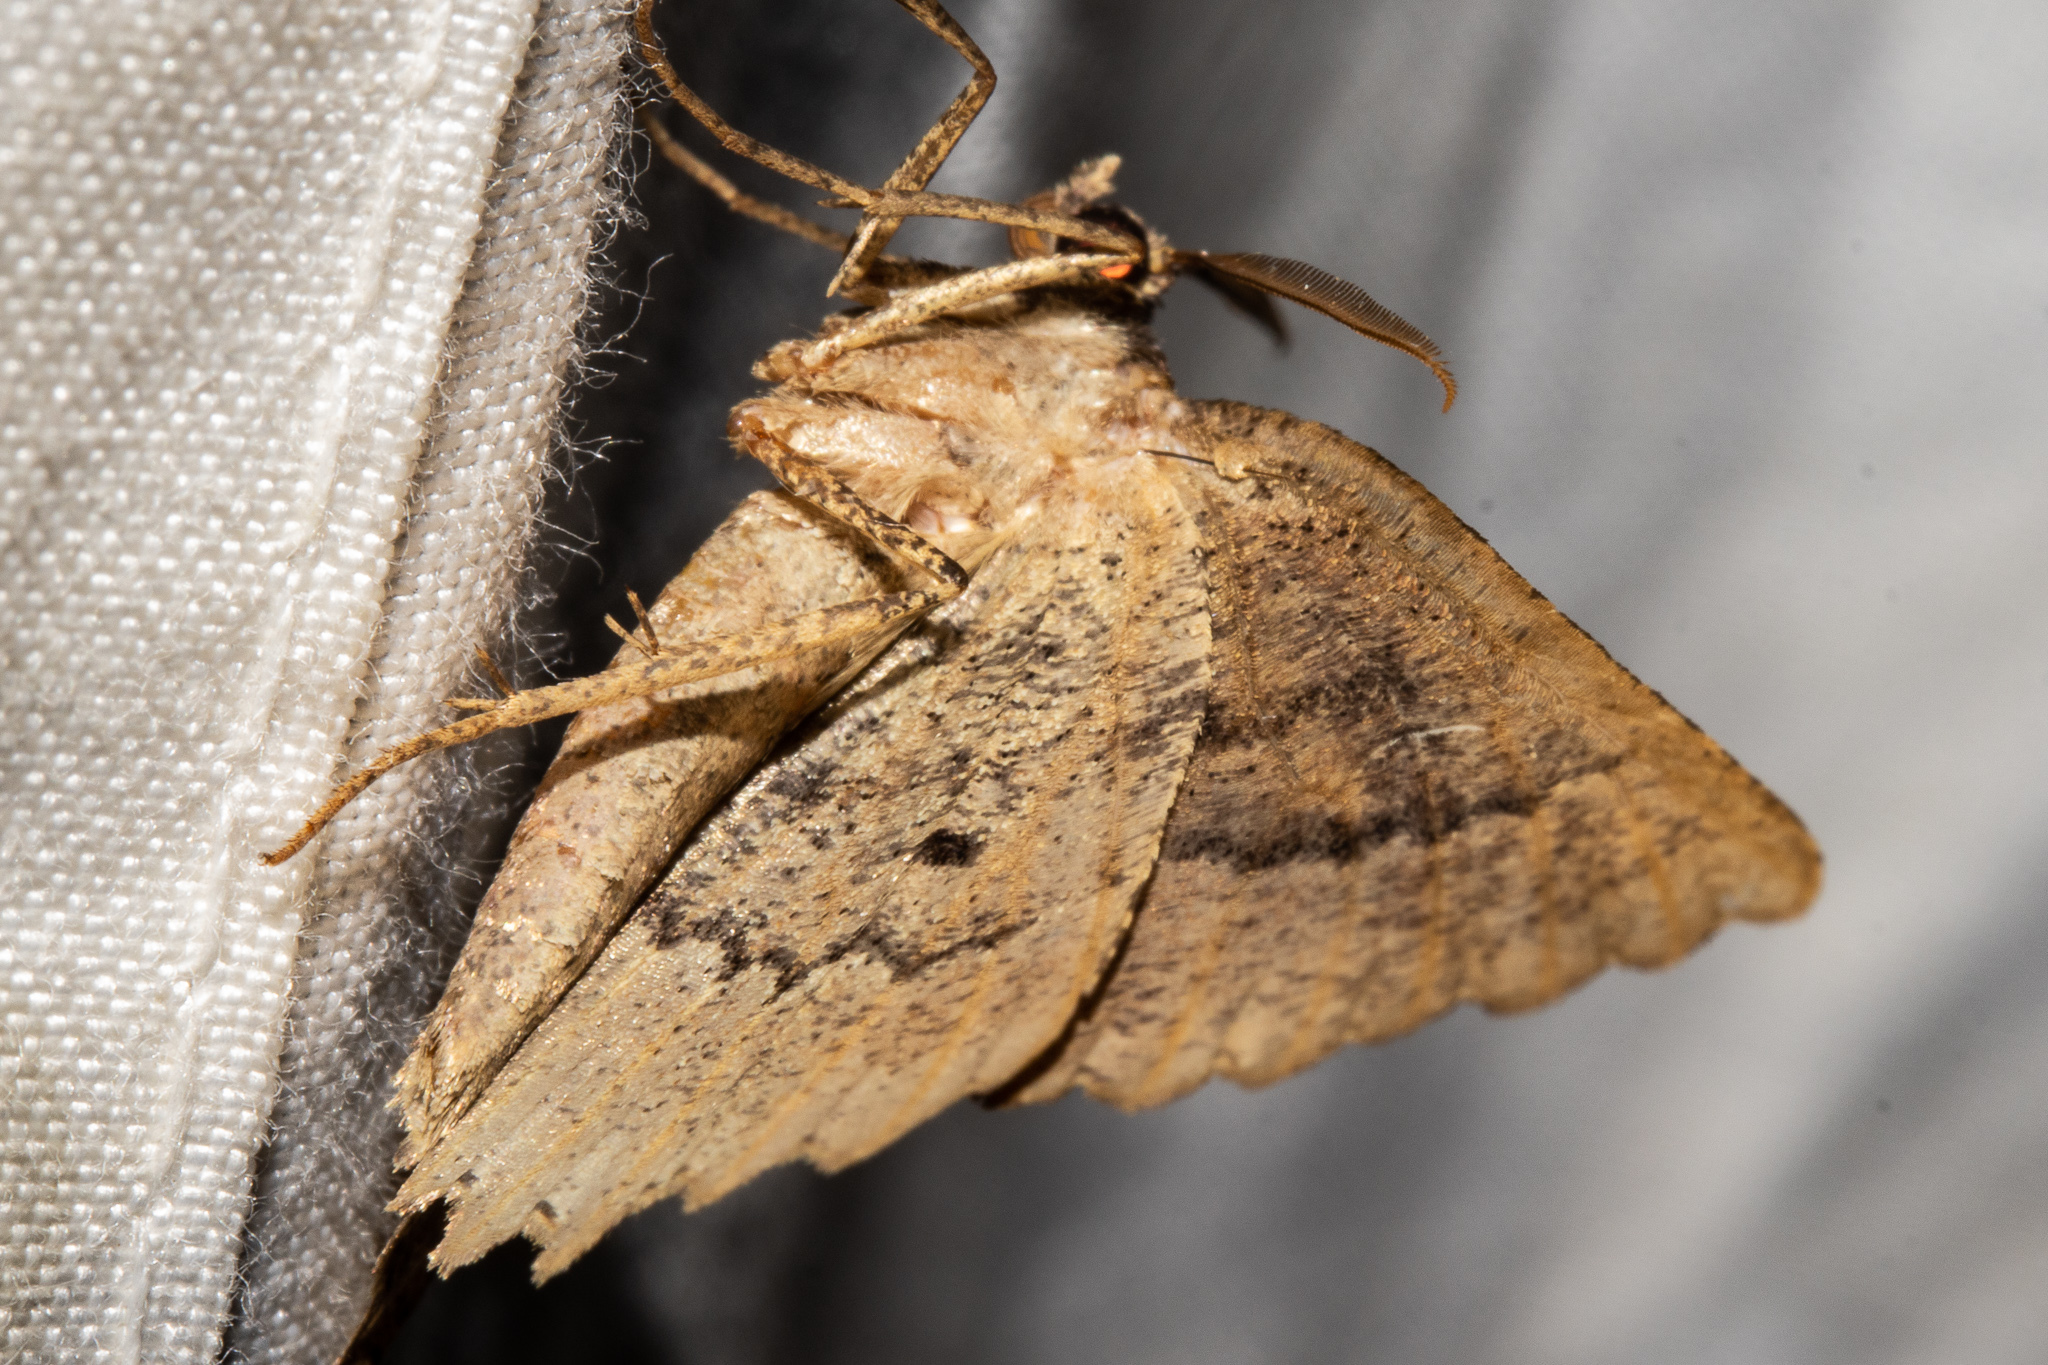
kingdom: Animalia
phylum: Arthropoda
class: Insecta
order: Lepidoptera
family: Geometridae
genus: Gellonia
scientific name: Gellonia pannularia
